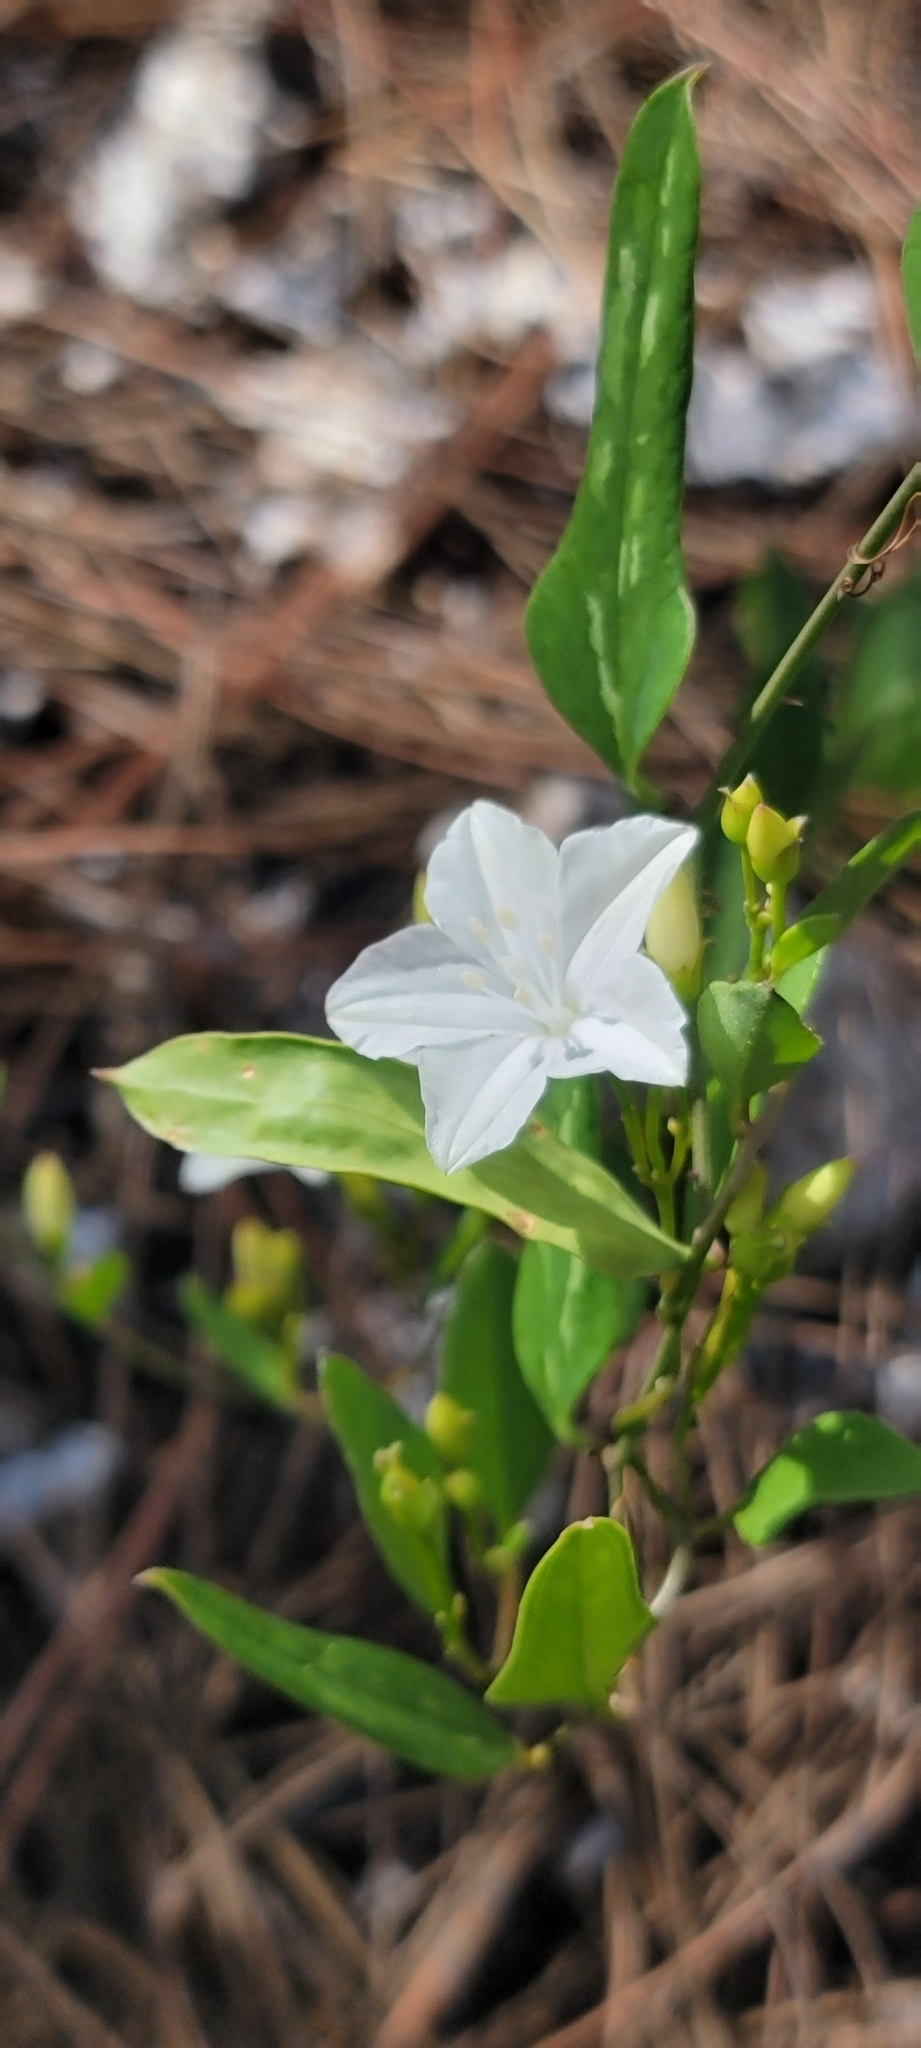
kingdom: Plantae
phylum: Tracheophyta
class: Magnoliopsida
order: Solanales
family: Convolvulaceae
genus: Jacquemontia
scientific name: Jacquemontia curtissii
